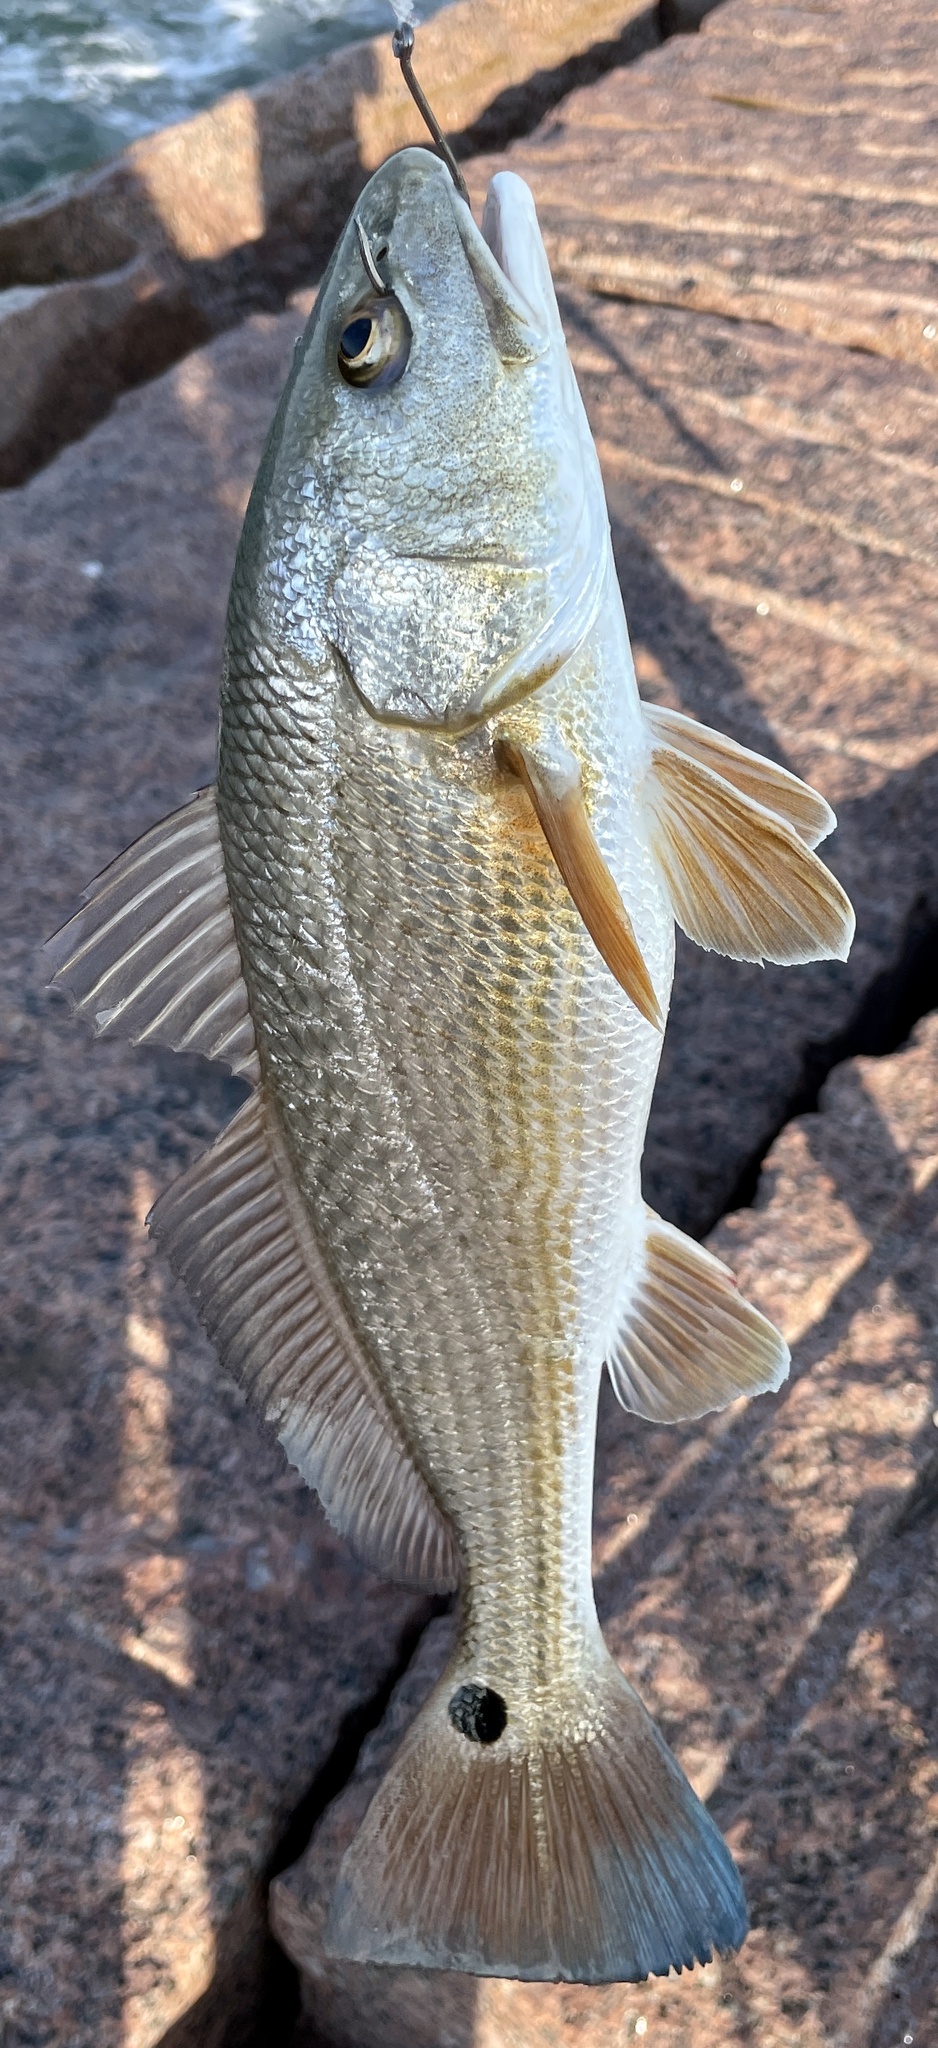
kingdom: Animalia
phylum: Chordata
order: Perciformes
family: Sciaenidae
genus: Sciaenops
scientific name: Sciaenops ocellatus
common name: Red drum
